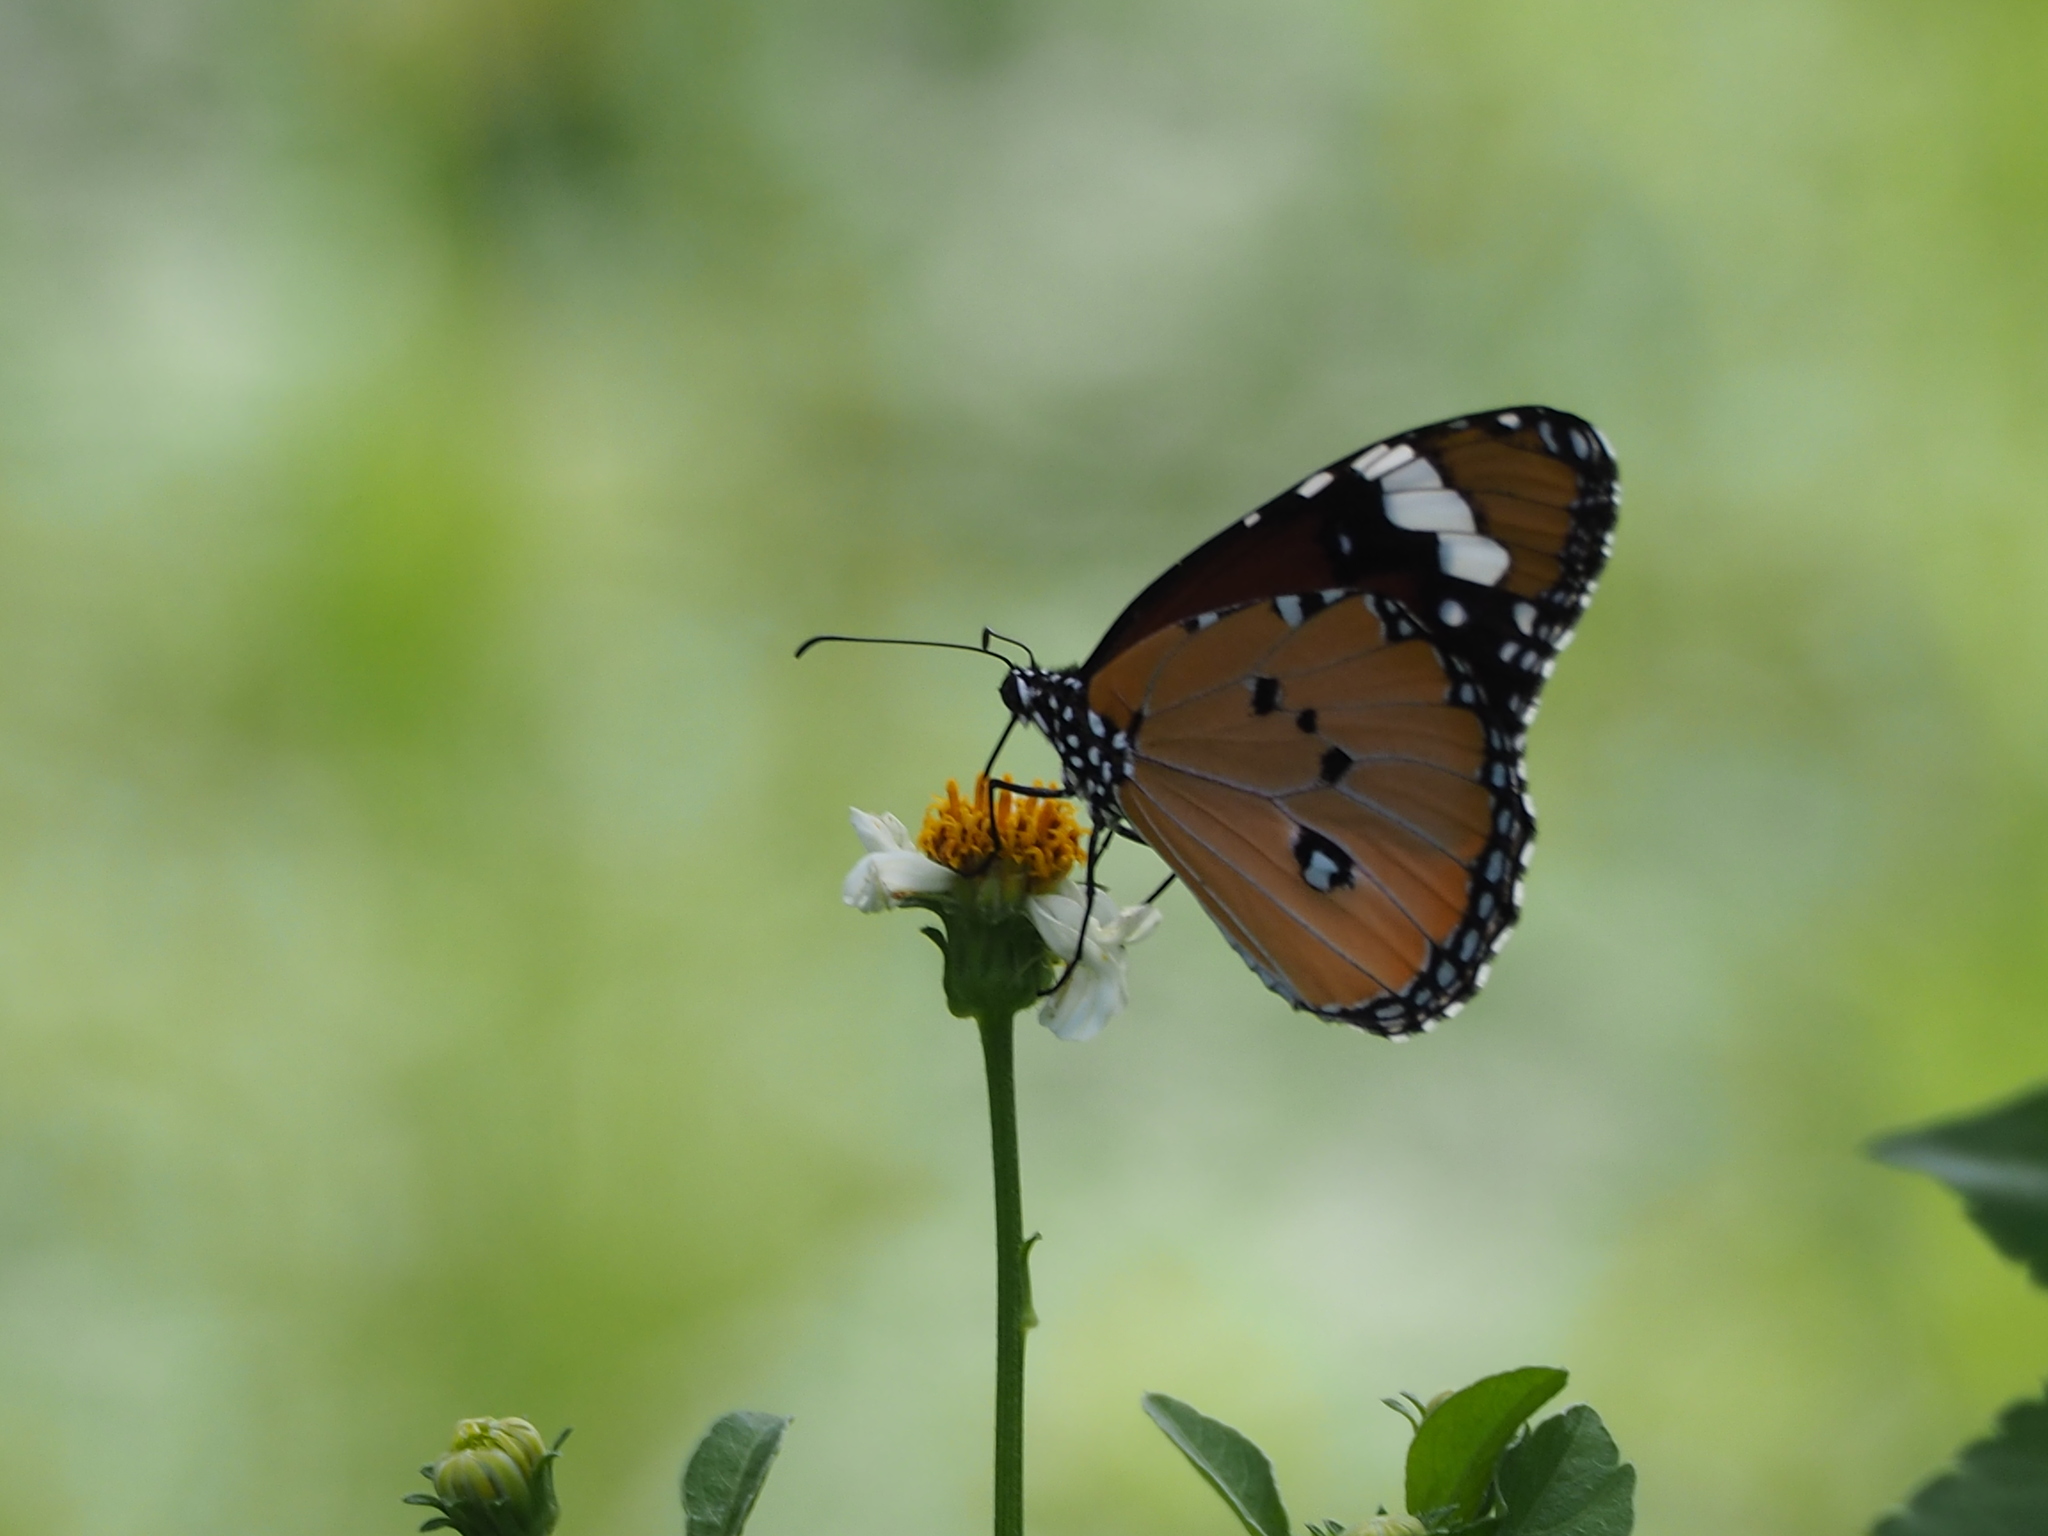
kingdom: Animalia
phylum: Arthropoda
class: Insecta
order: Lepidoptera
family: Nymphalidae
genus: Danaus
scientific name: Danaus chrysippus
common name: Plain tiger
